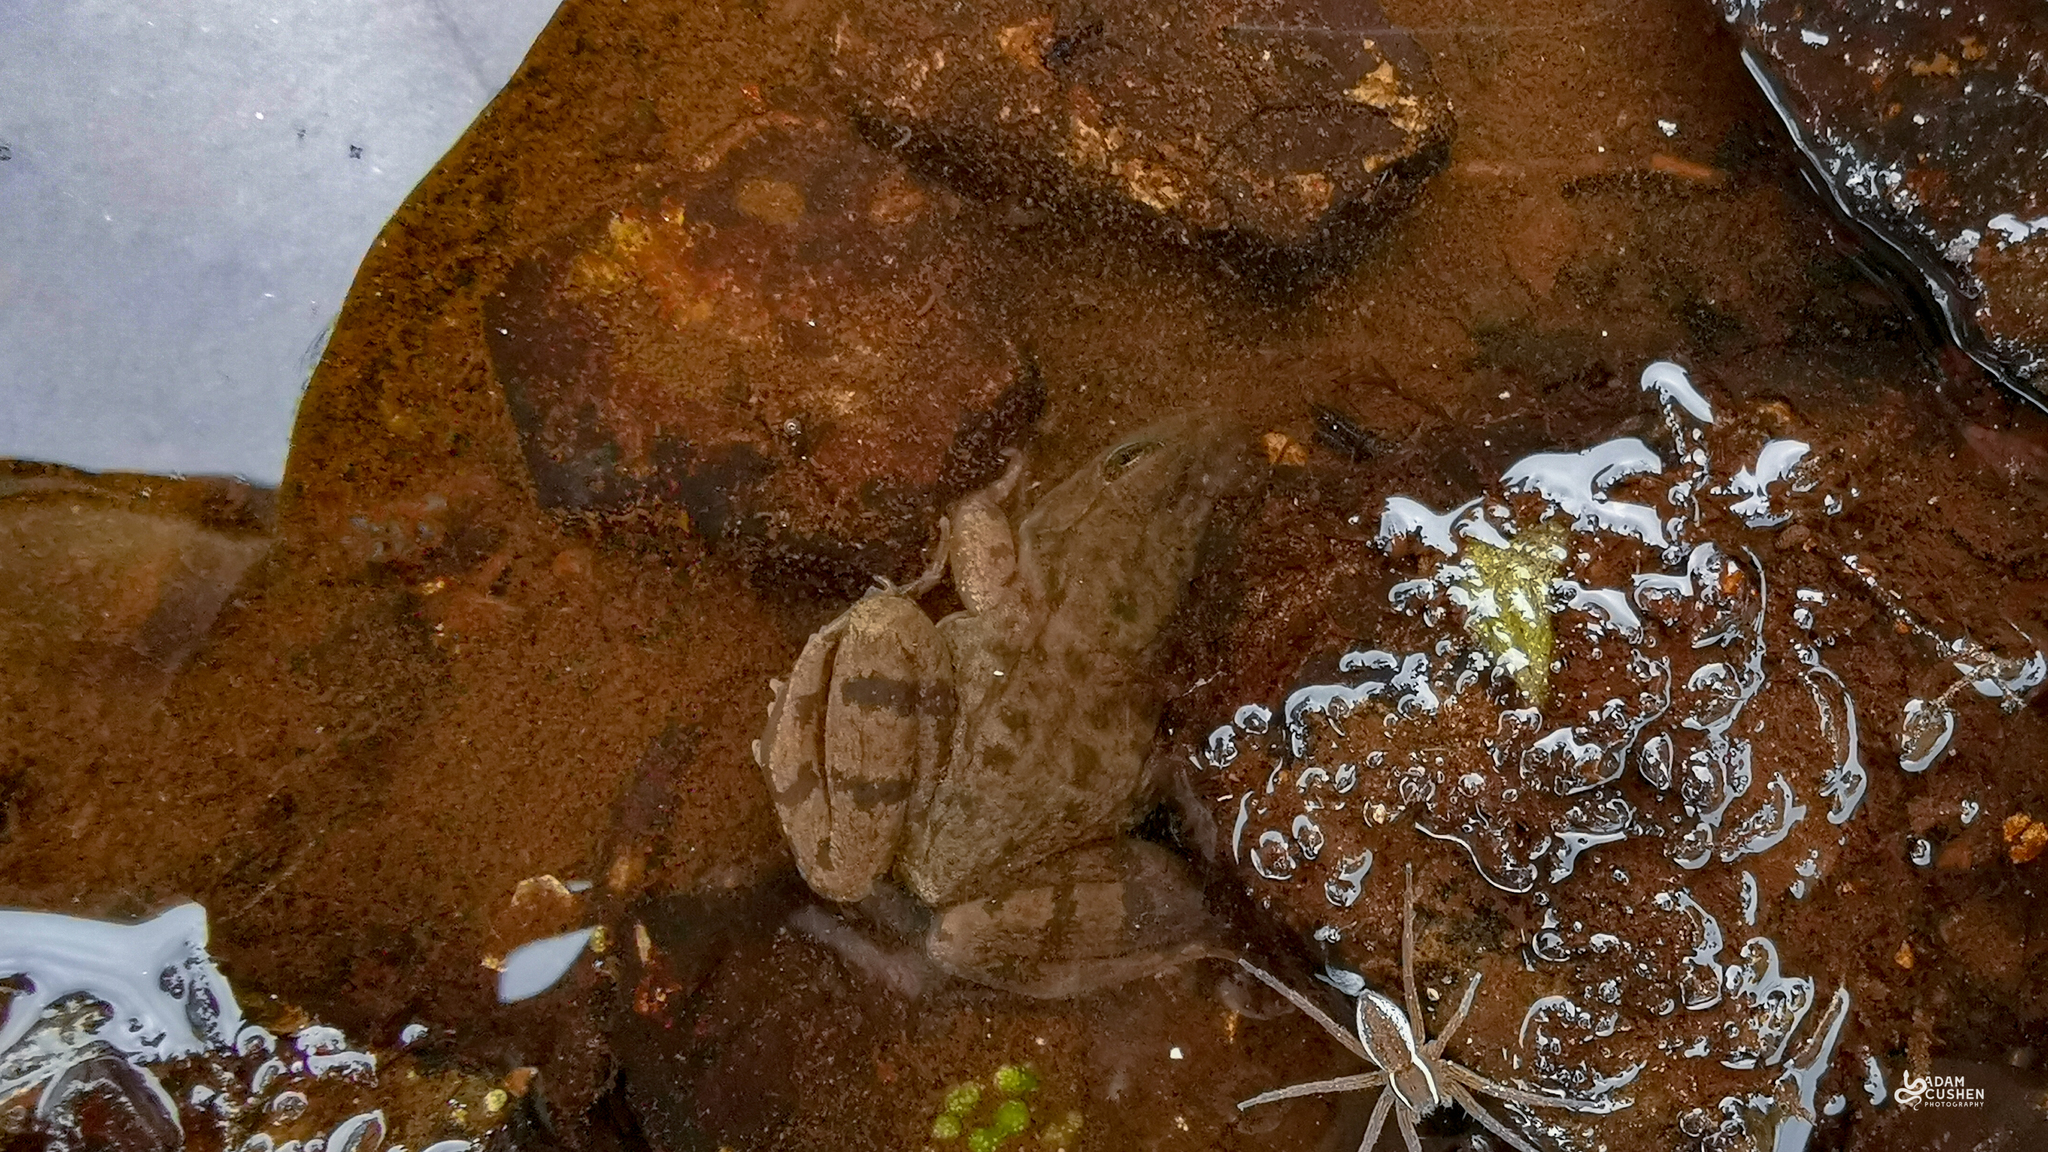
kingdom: Animalia
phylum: Chordata
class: Amphibia
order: Anura
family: Ranidae
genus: Lithobates
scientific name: Lithobates clamitans
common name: Green frog
